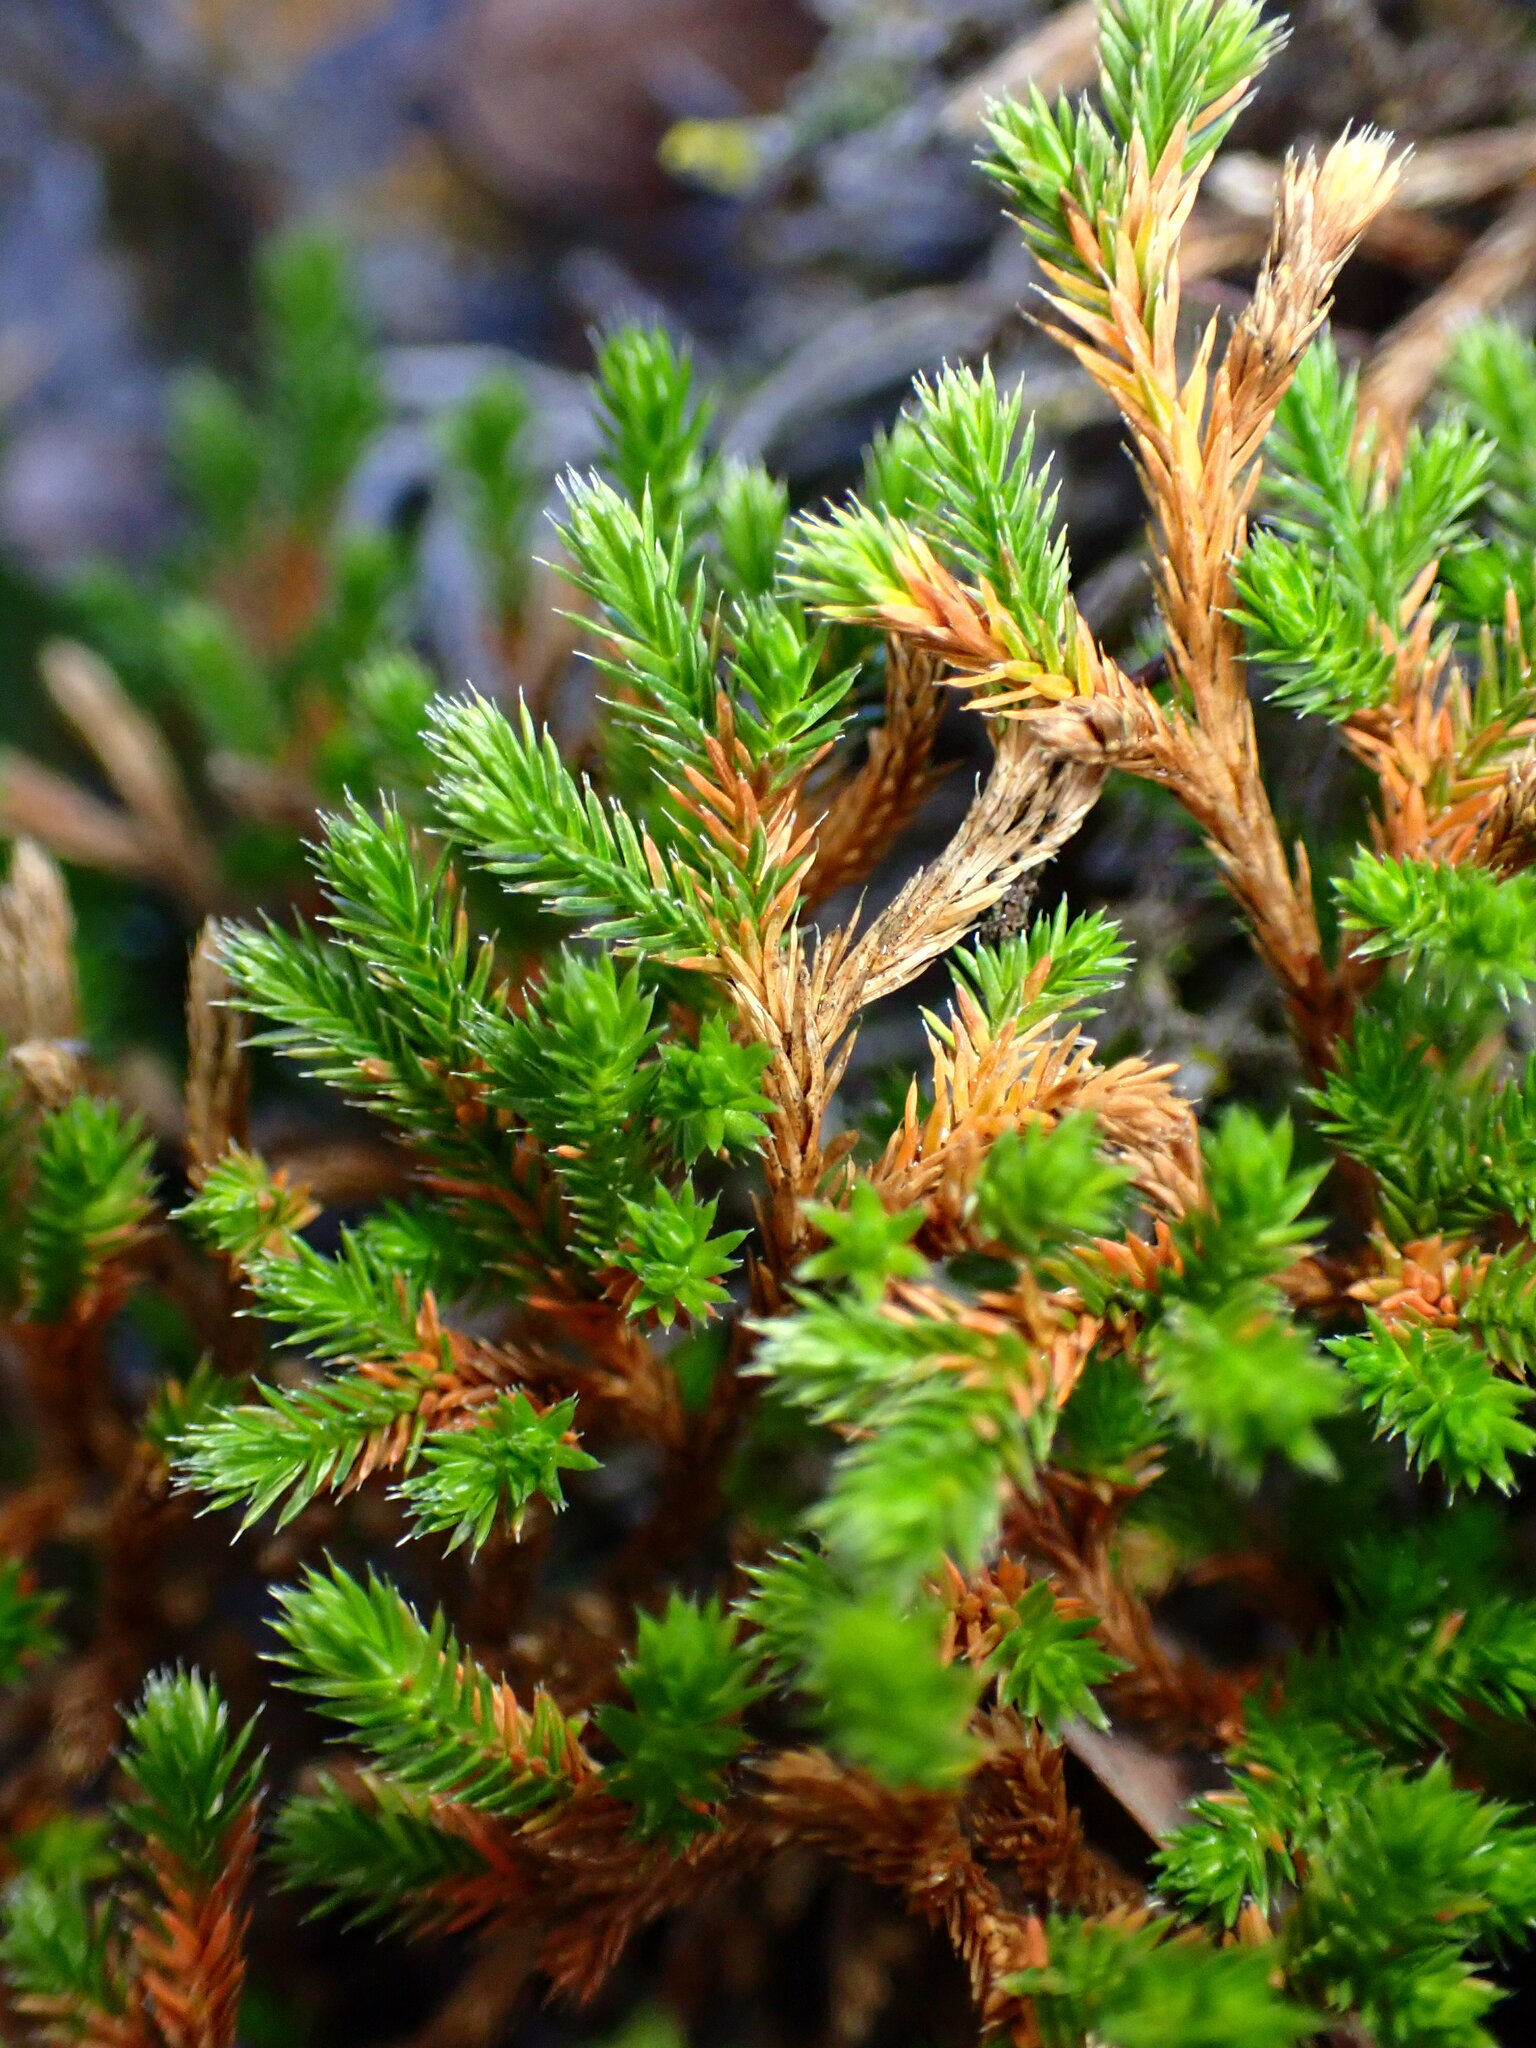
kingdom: Plantae
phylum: Tracheophyta
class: Lycopodiopsida
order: Selaginellales
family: Selaginellaceae
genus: Selaginella
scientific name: Selaginella bigelovii
